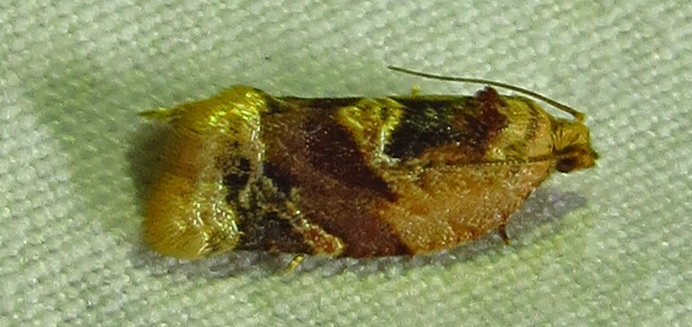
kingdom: Animalia
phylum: Arthropoda
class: Insecta
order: Lepidoptera
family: Tortricidae
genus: Argyrotaenia
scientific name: Argyrotaenia velutinana
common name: Red-banded leafroller moth
